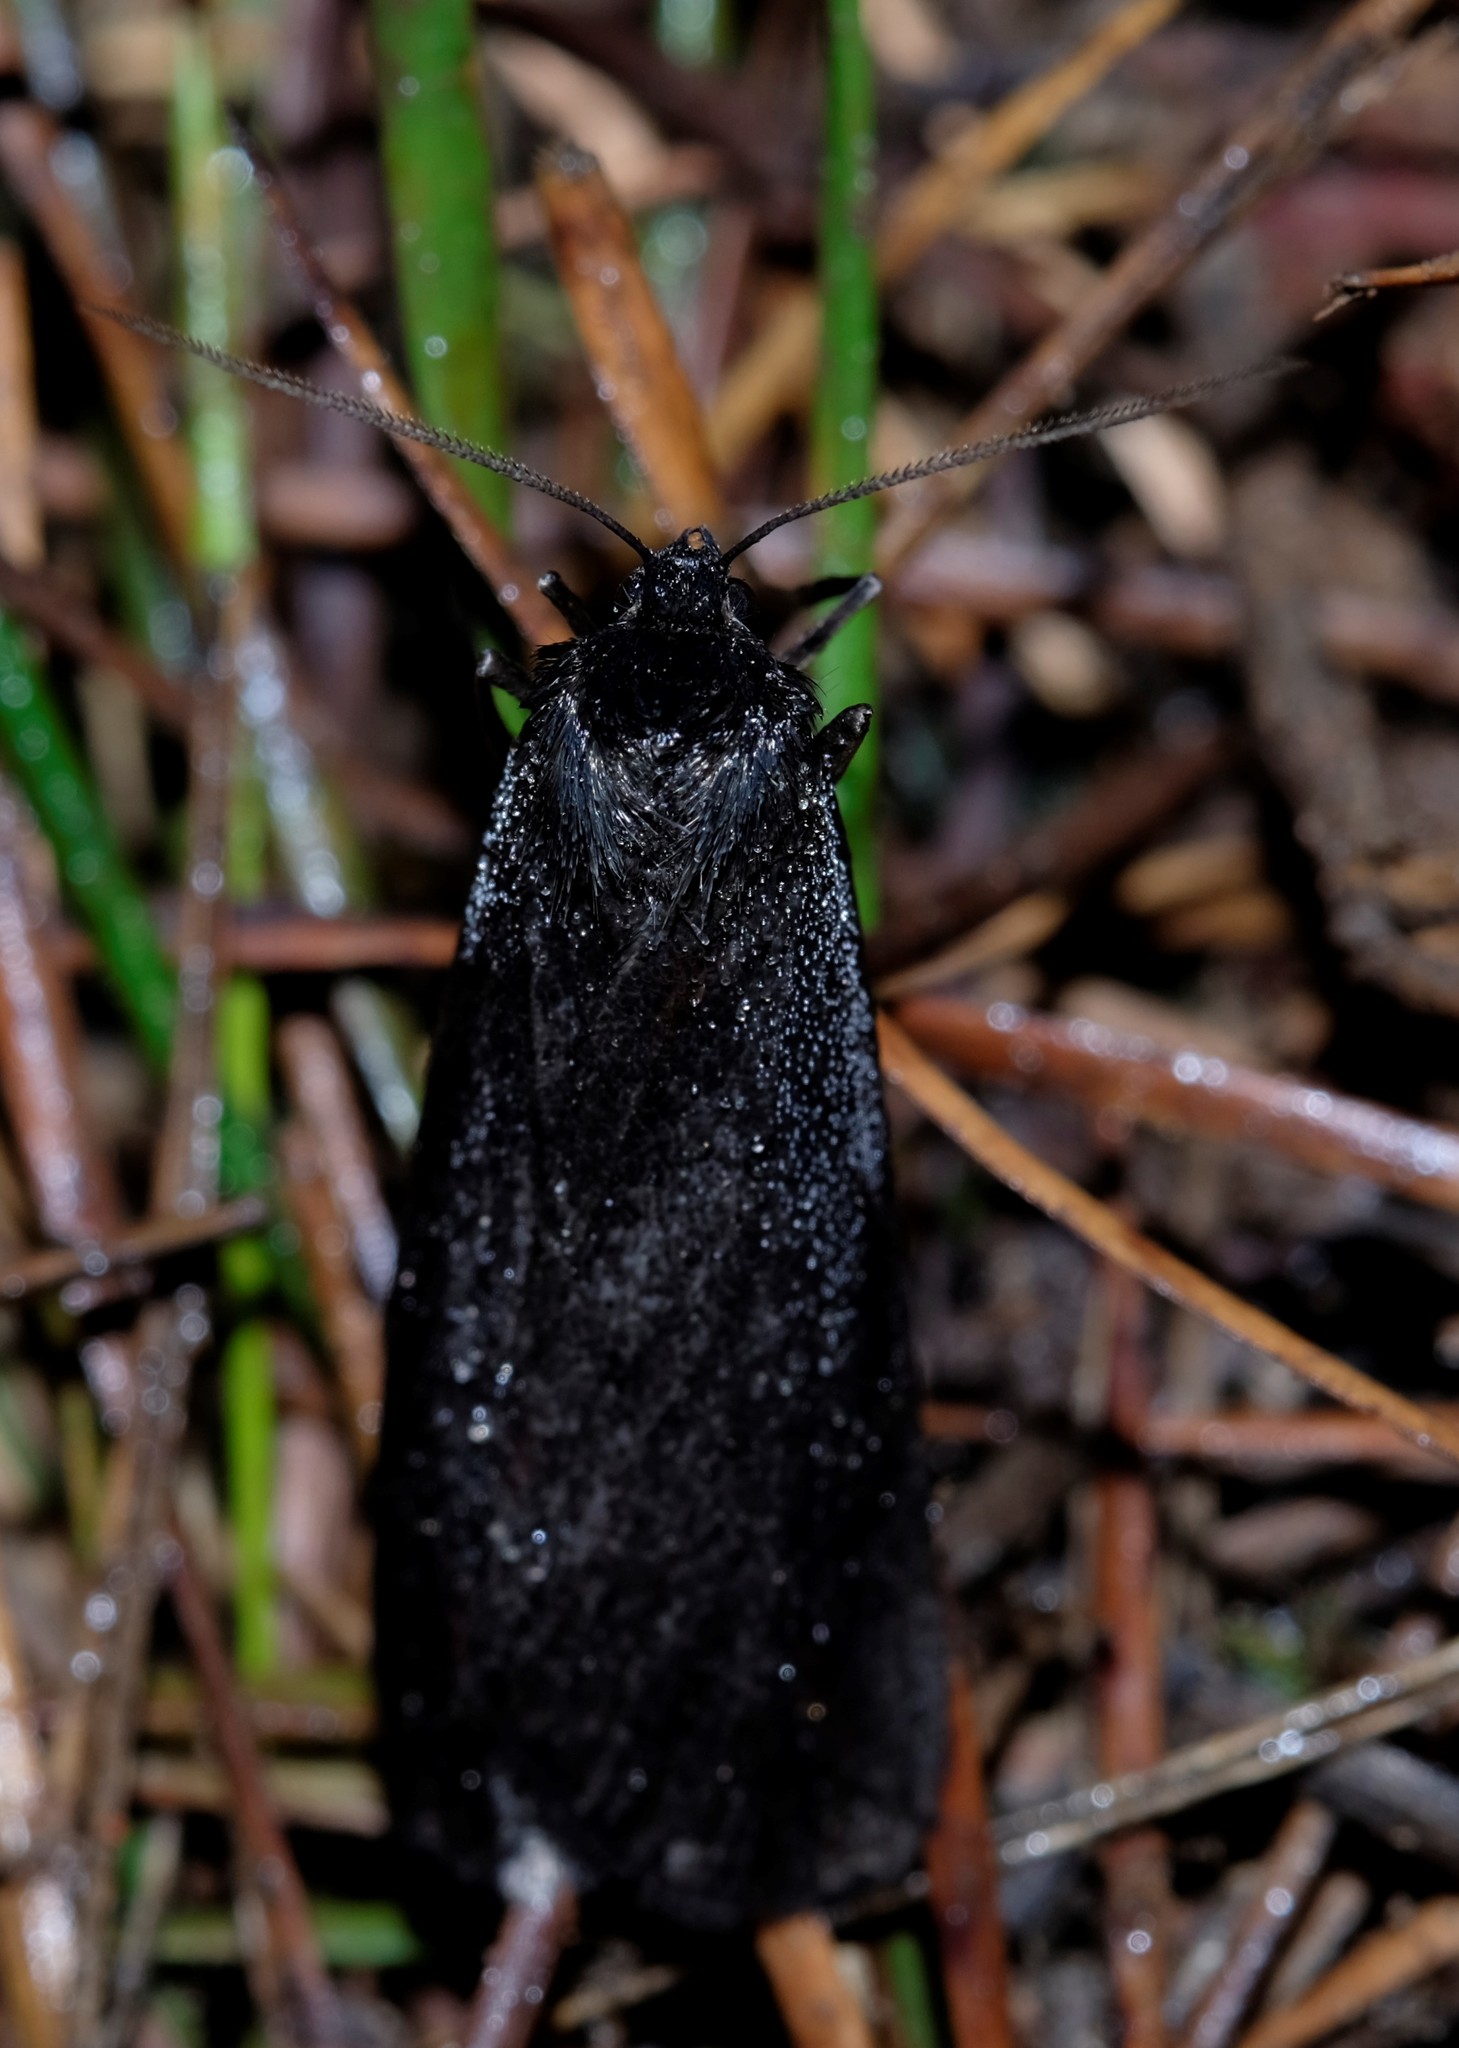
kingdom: Animalia
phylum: Arthropoda
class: Insecta
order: Lepidoptera
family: Geometridae
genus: Chlenias
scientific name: Chlenias seminigra
